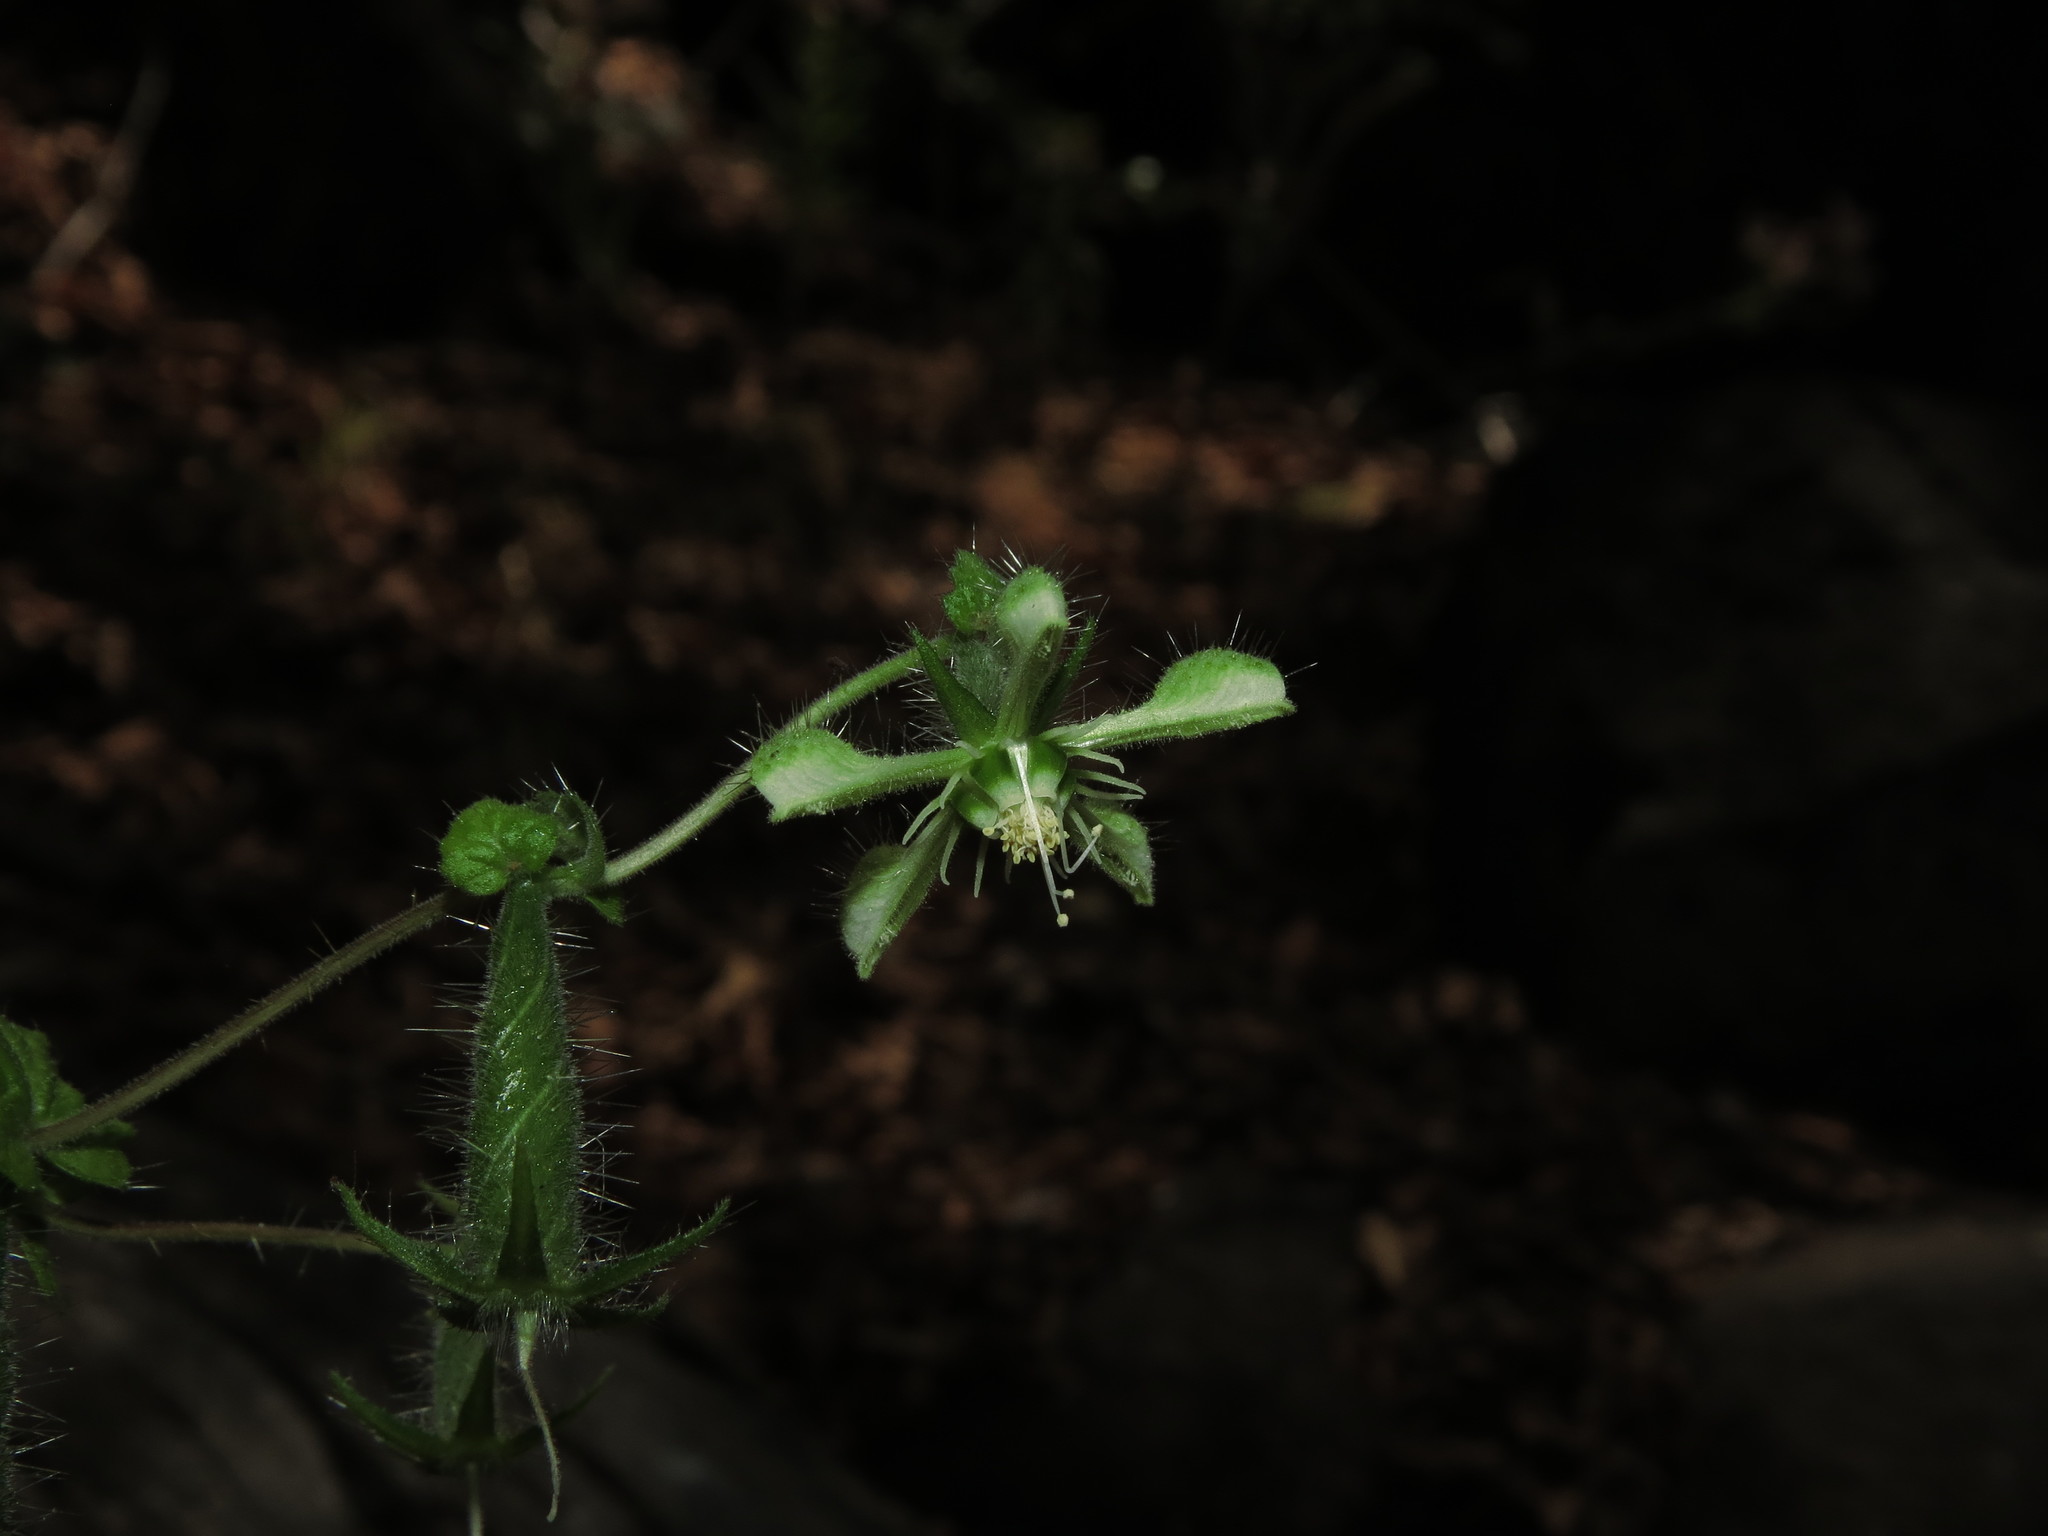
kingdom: Plantae
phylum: Tracheophyta
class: Magnoliopsida
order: Cornales
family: Loasaceae
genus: Blumenbachia
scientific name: Blumenbachia sylvestris
